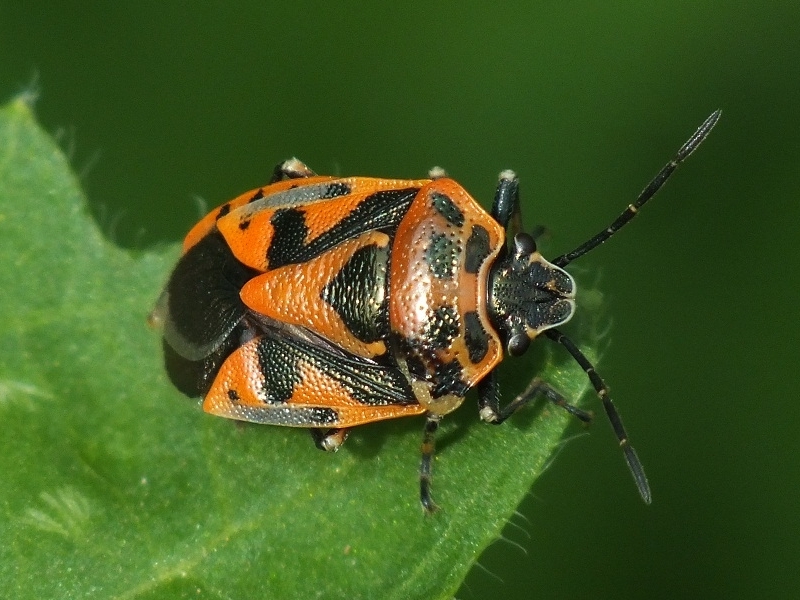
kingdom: Animalia
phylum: Arthropoda
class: Insecta
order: Hemiptera
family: Pentatomidae
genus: Eurydema
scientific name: Eurydema ornata
